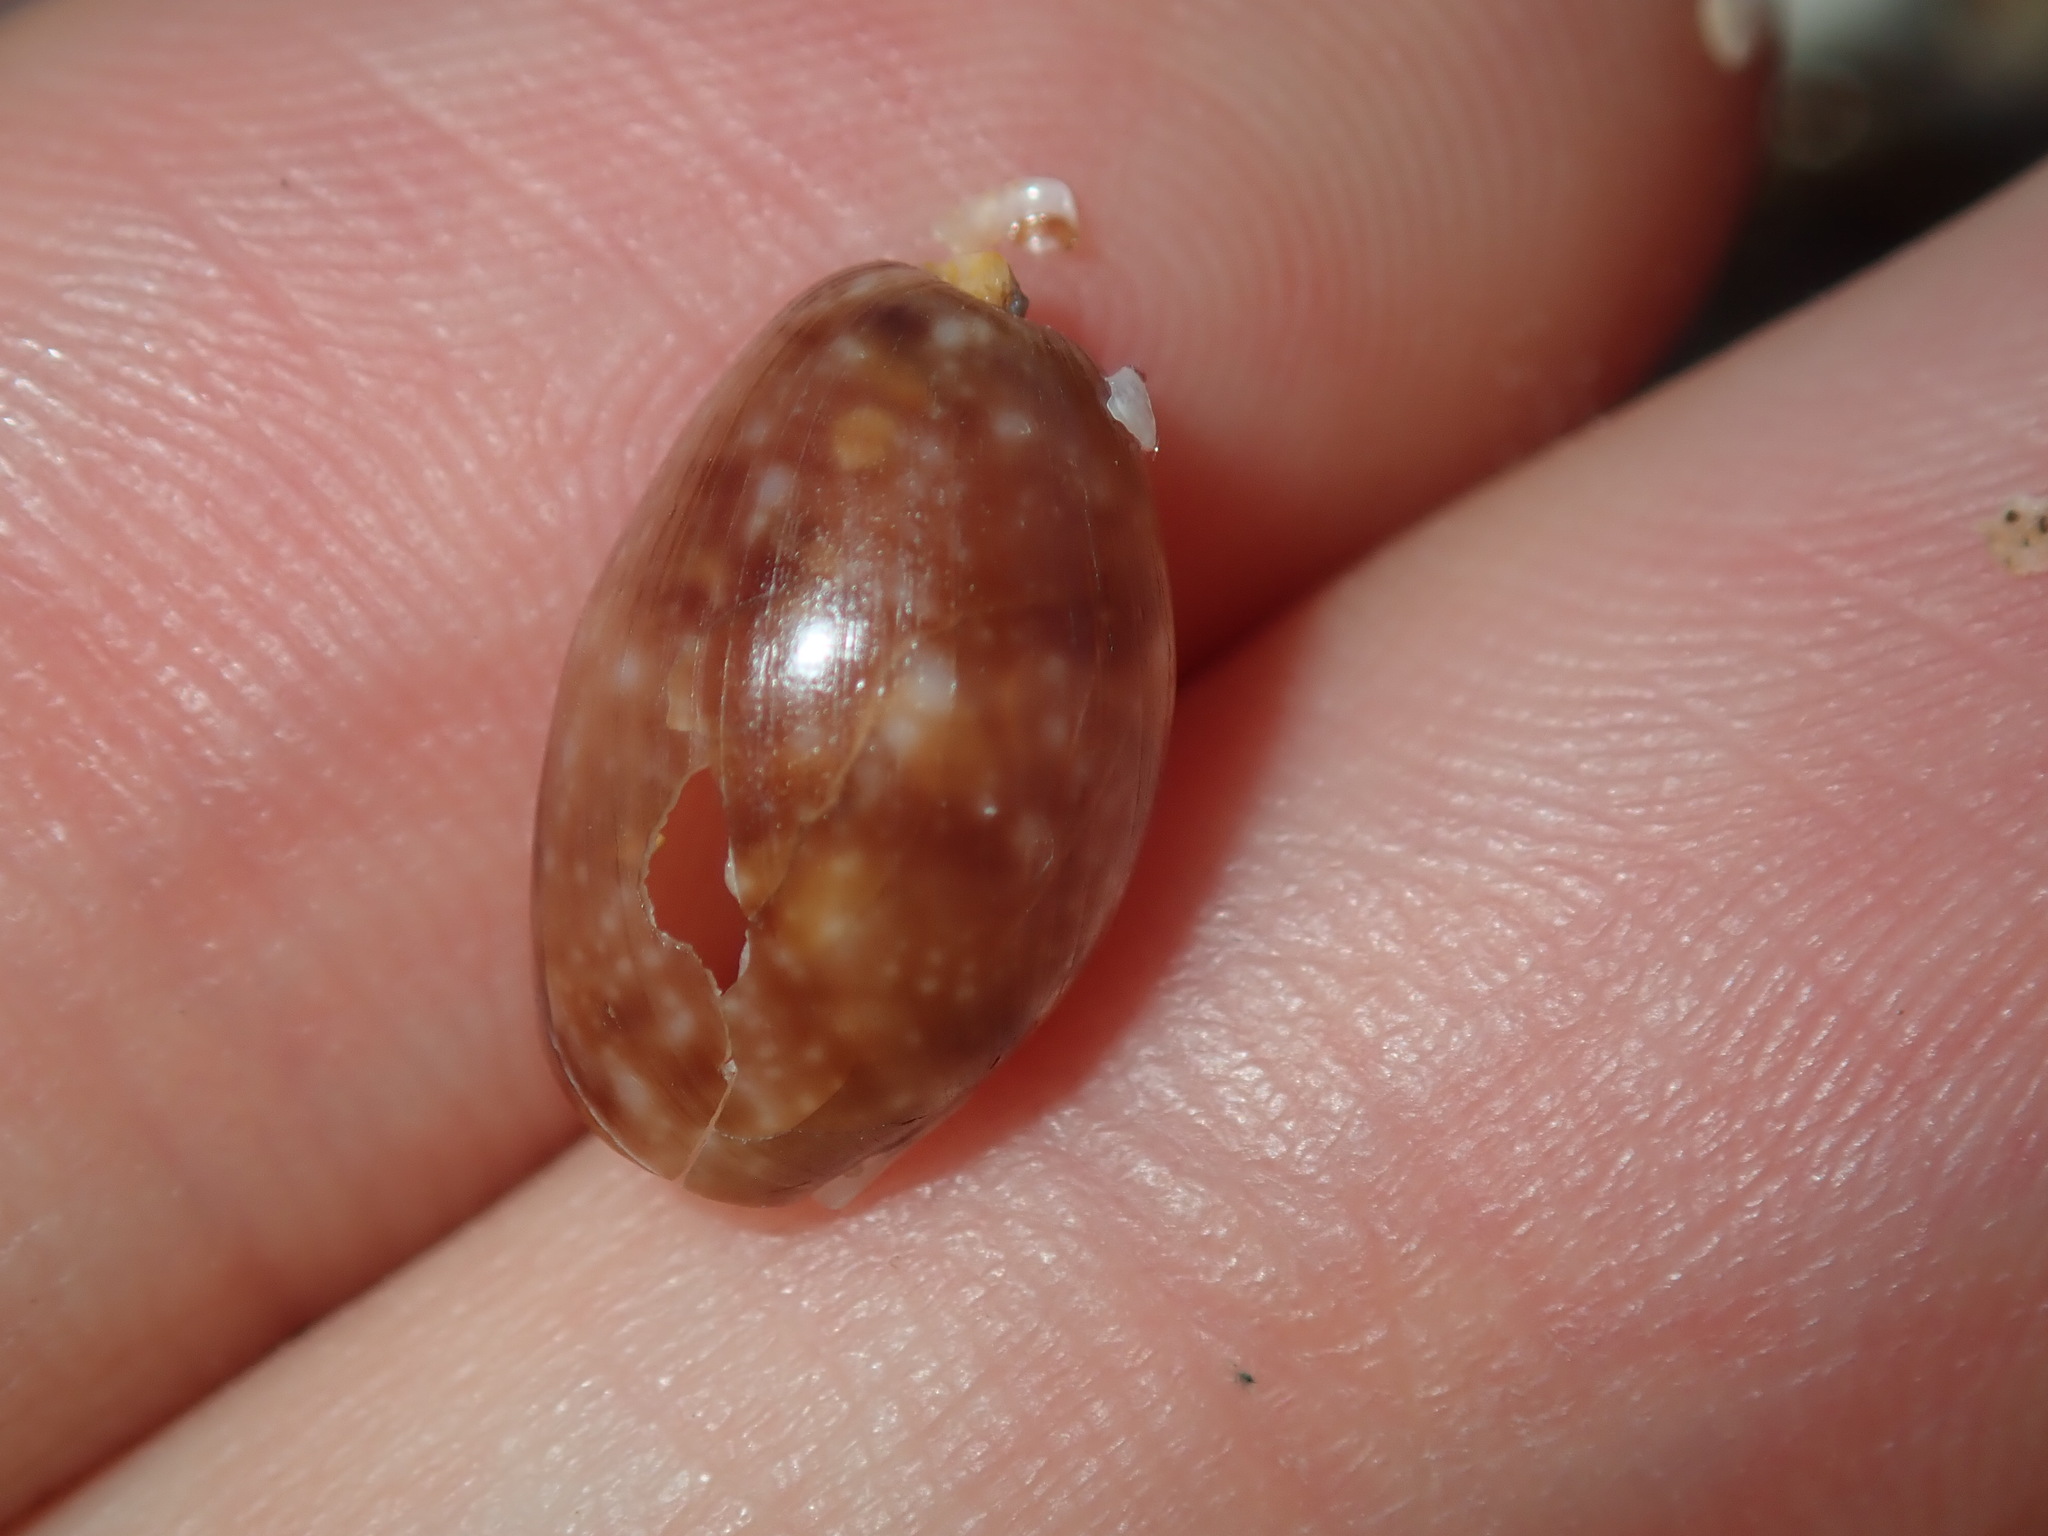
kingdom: Animalia
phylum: Mollusca
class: Gastropoda
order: Cephalaspidea
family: Bullidae
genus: Bulla
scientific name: Bulla mabillei
